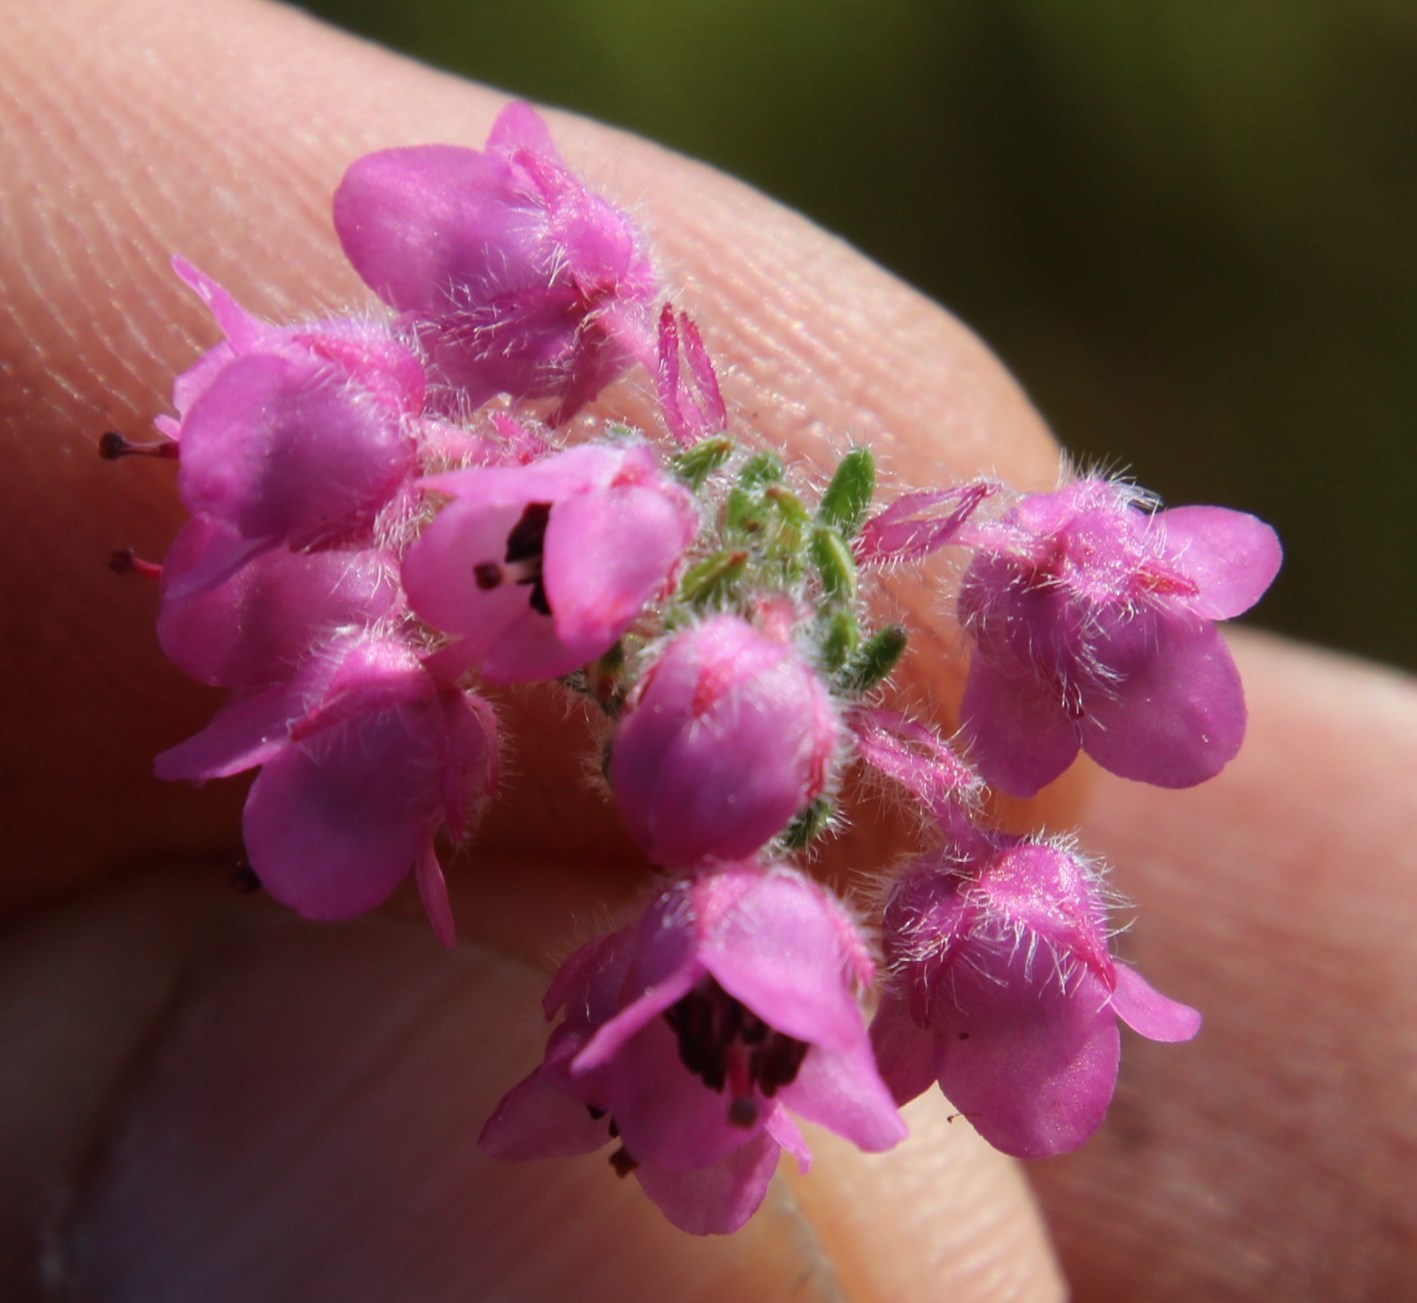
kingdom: Plantae
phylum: Tracheophyta
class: Magnoliopsida
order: Ericales
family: Ericaceae
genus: Erica
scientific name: Erica amoena
